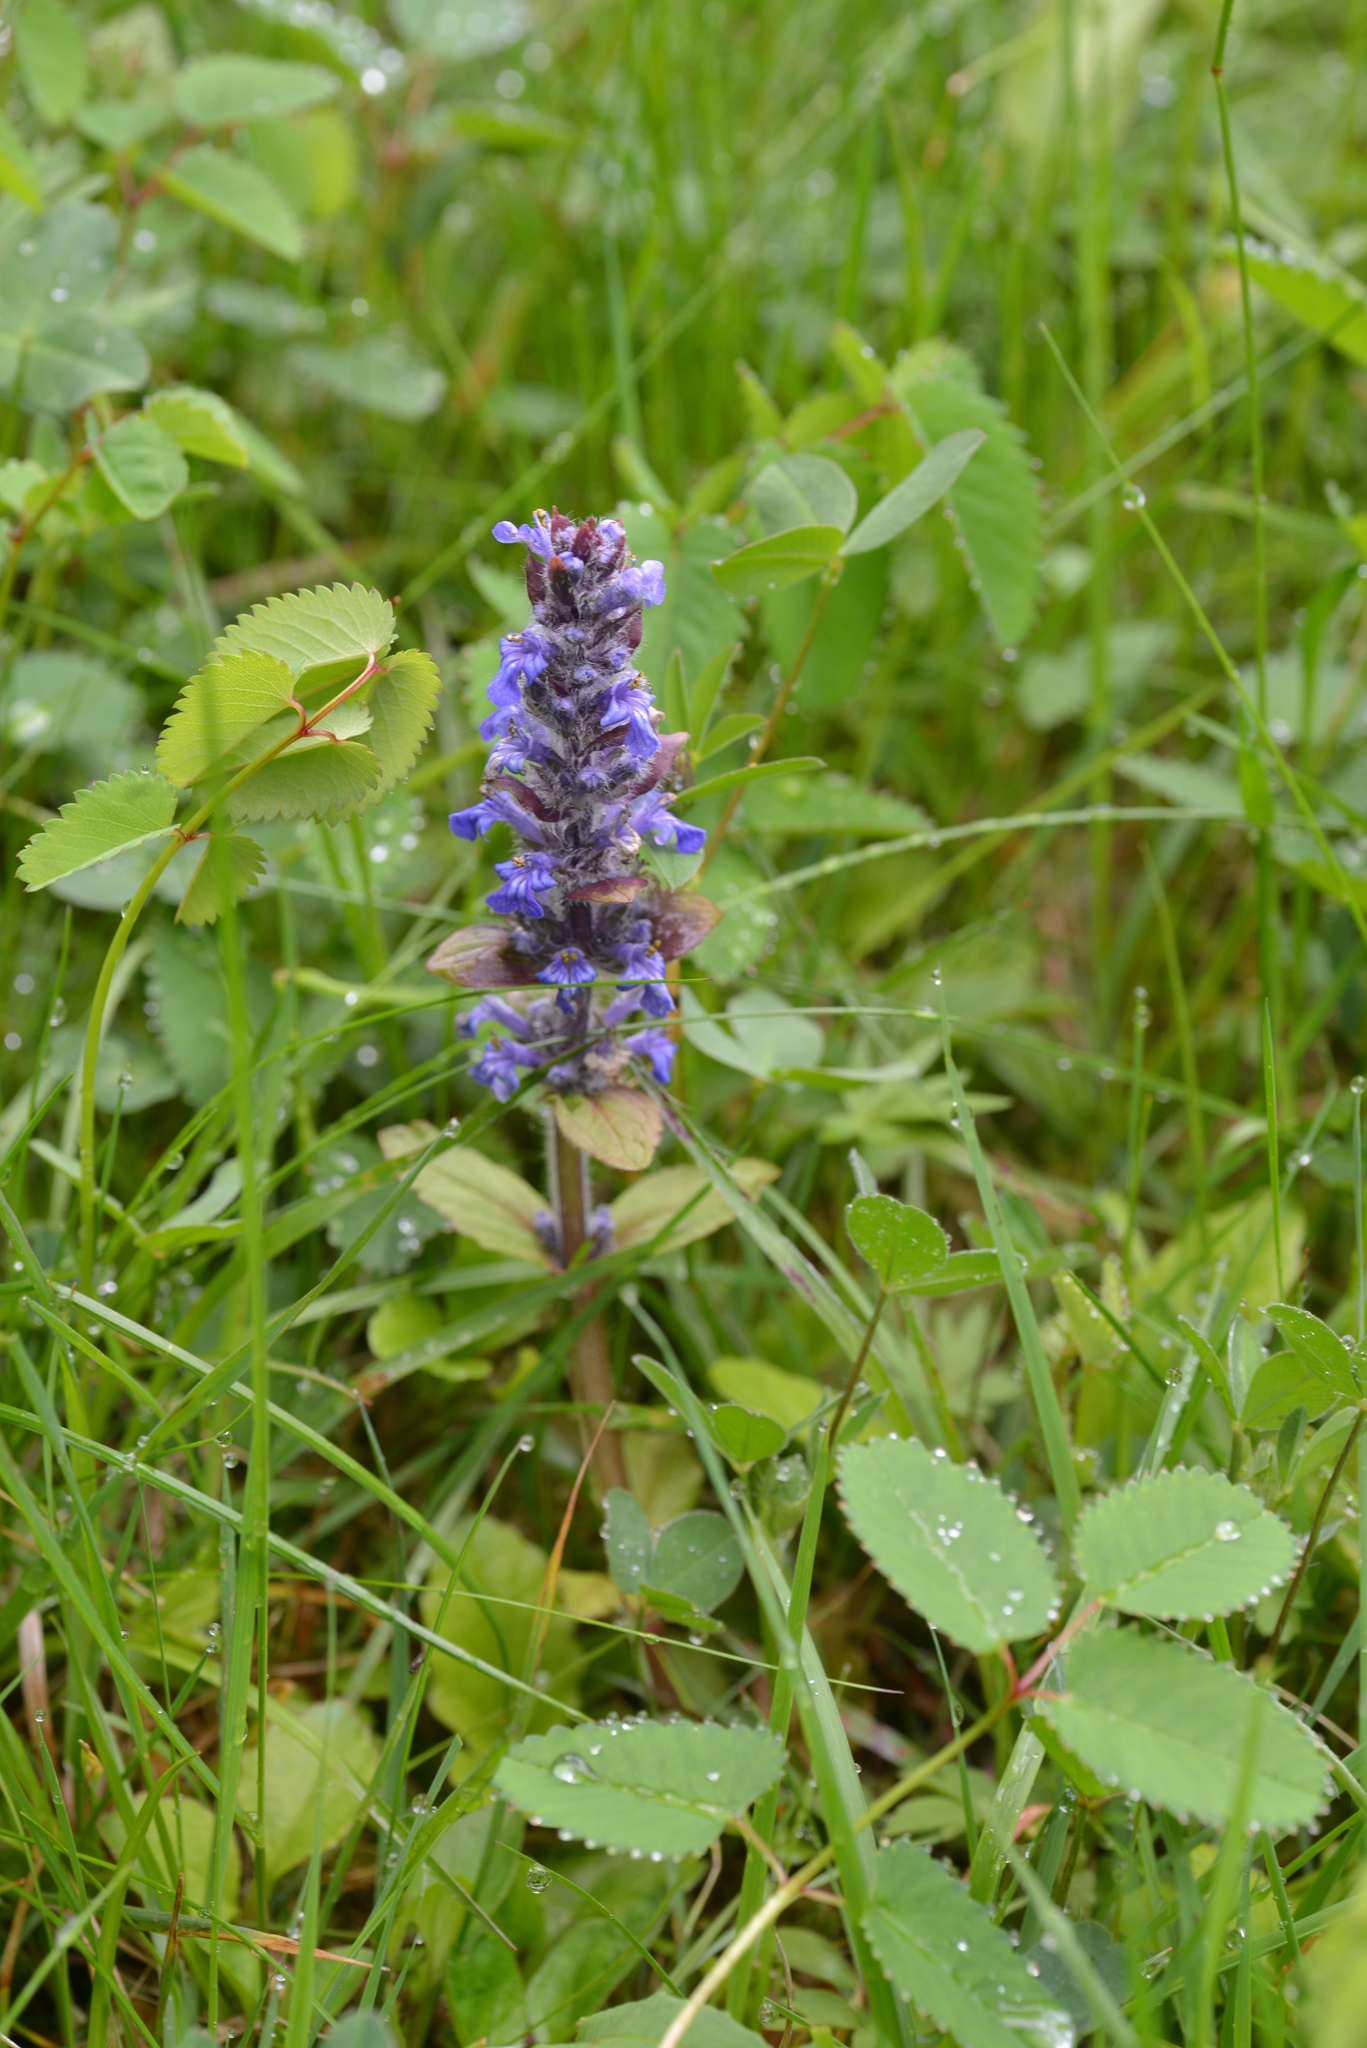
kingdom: Plantae
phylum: Tracheophyta
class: Magnoliopsida
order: Lamiales
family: Lamiaceae
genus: Ajuga
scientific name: Ajuga reptans
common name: Bugle
